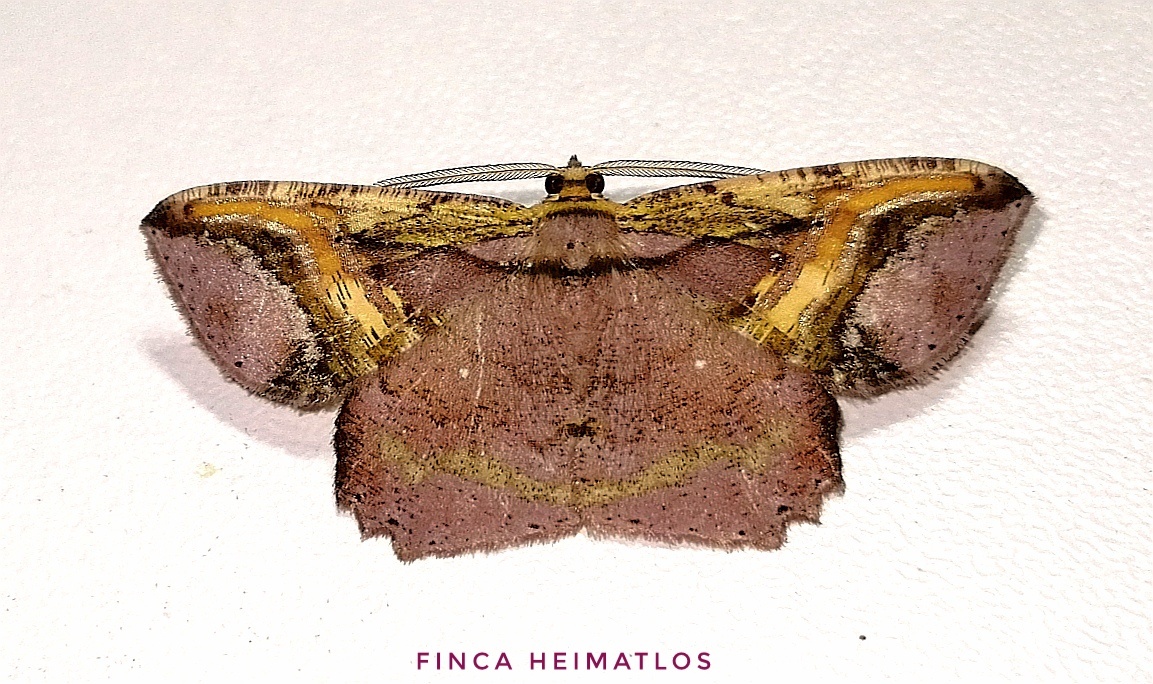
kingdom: Animalia
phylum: Arthropoda
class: Insecta
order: Lepidoptera
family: Geometridae
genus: Thysanopyga
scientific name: Thysanopyga
